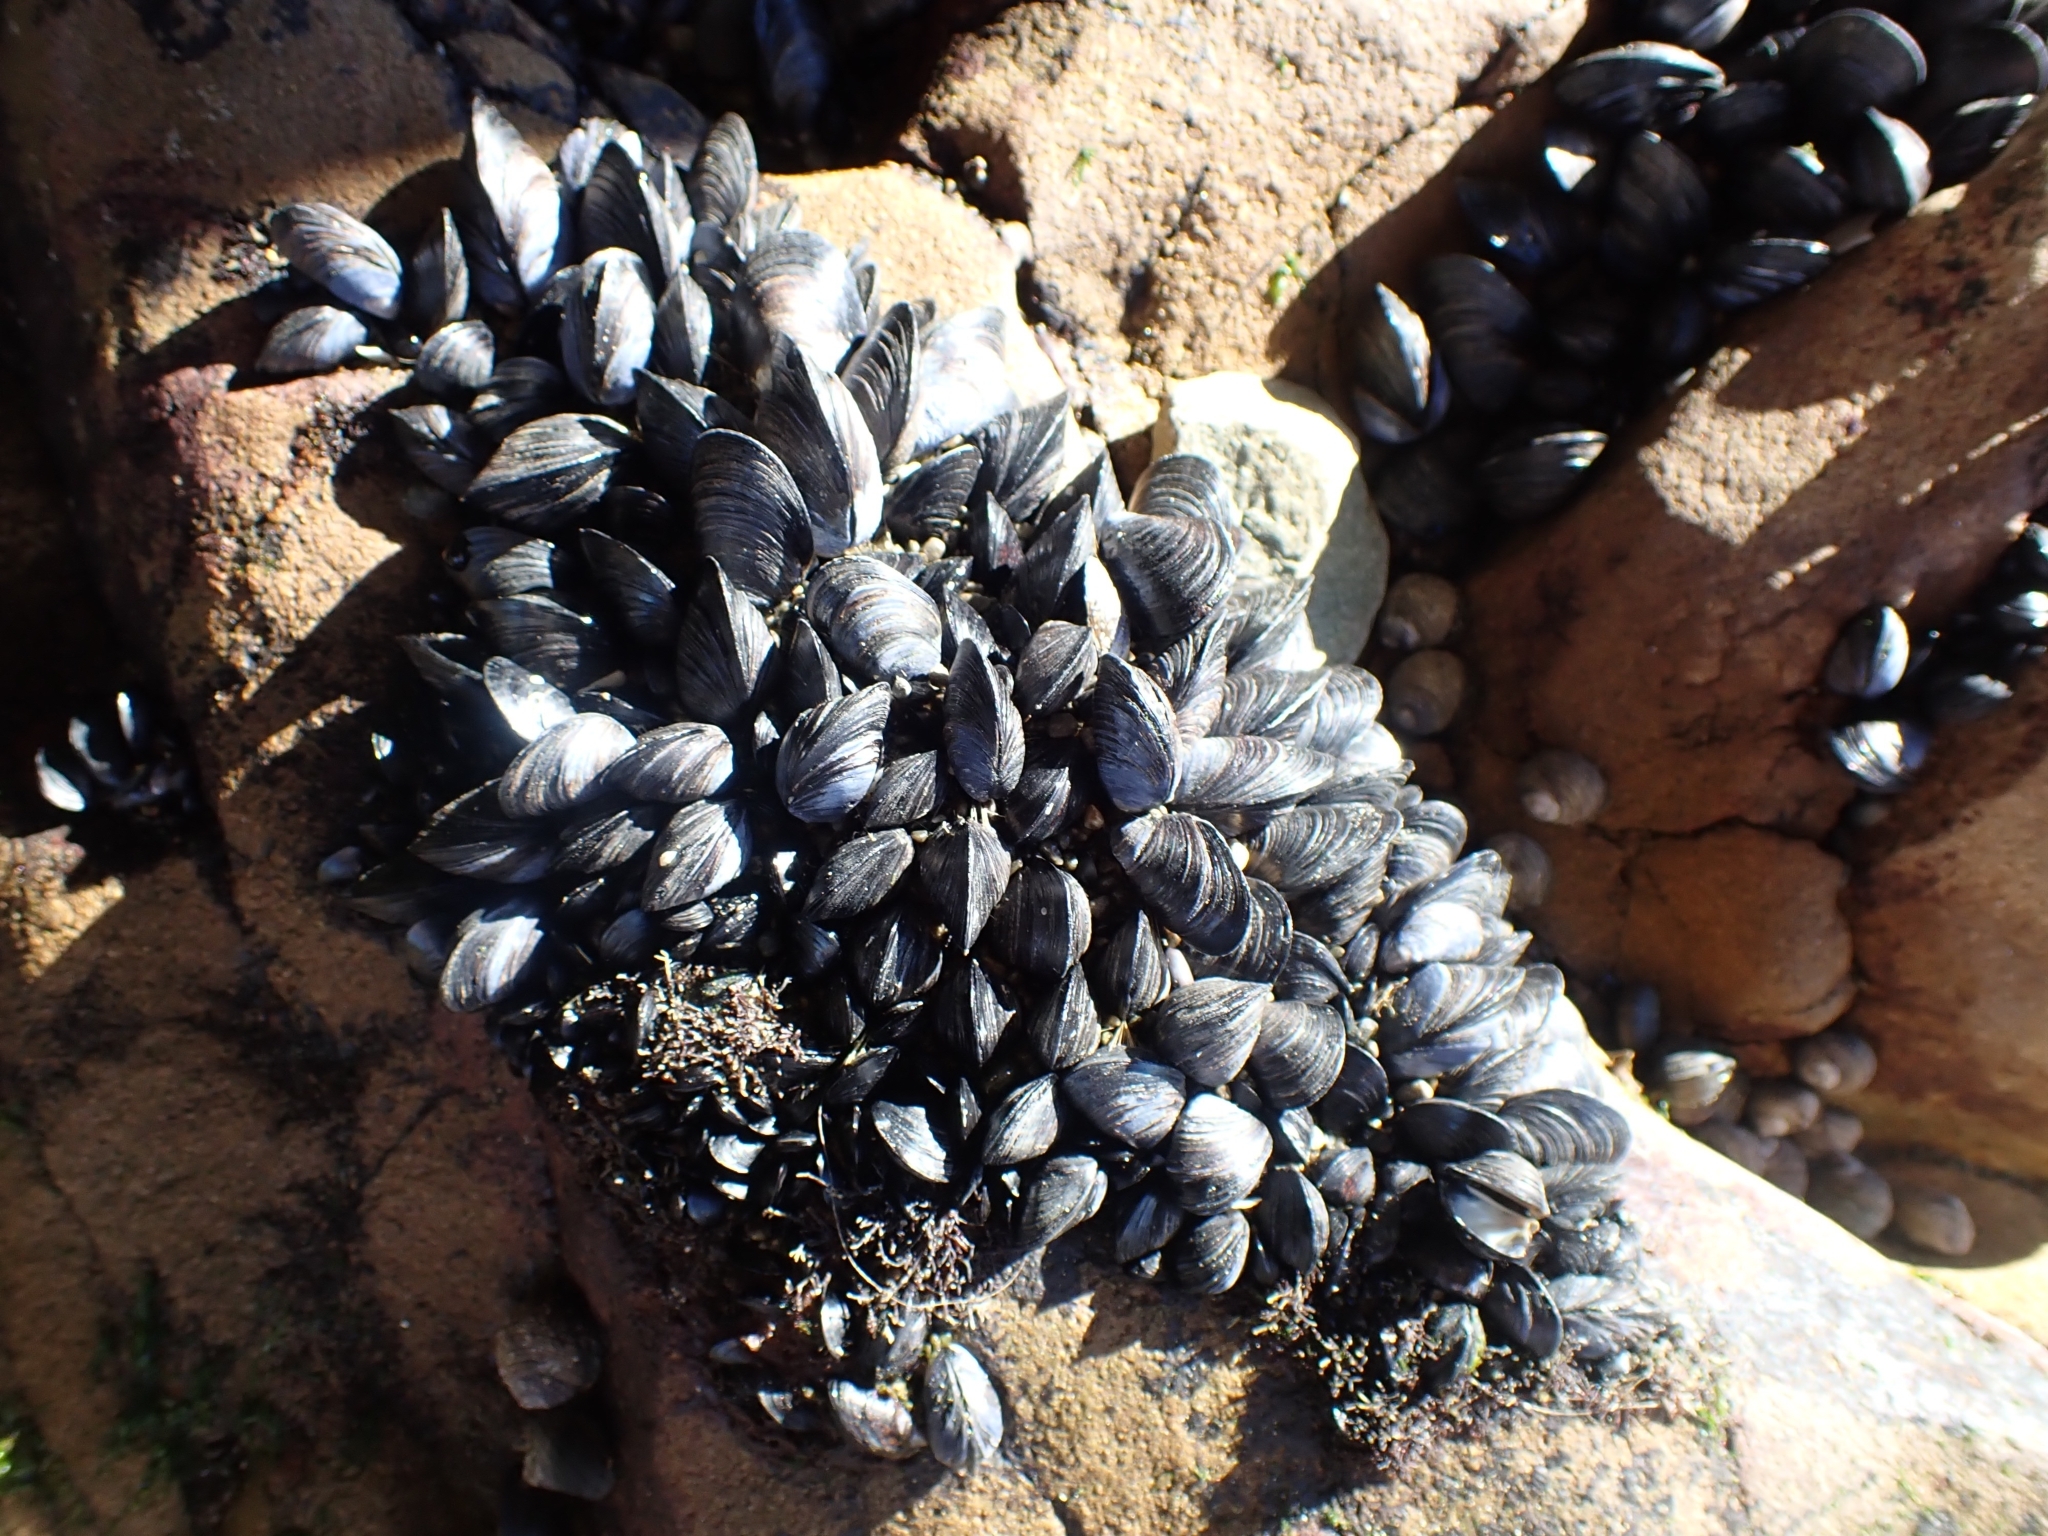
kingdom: Animalia
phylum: Mollusca
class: Bivalvia
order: Mytilida
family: Mytilidae
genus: Xenostrobus
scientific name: Xenostrobus neozelanicus
